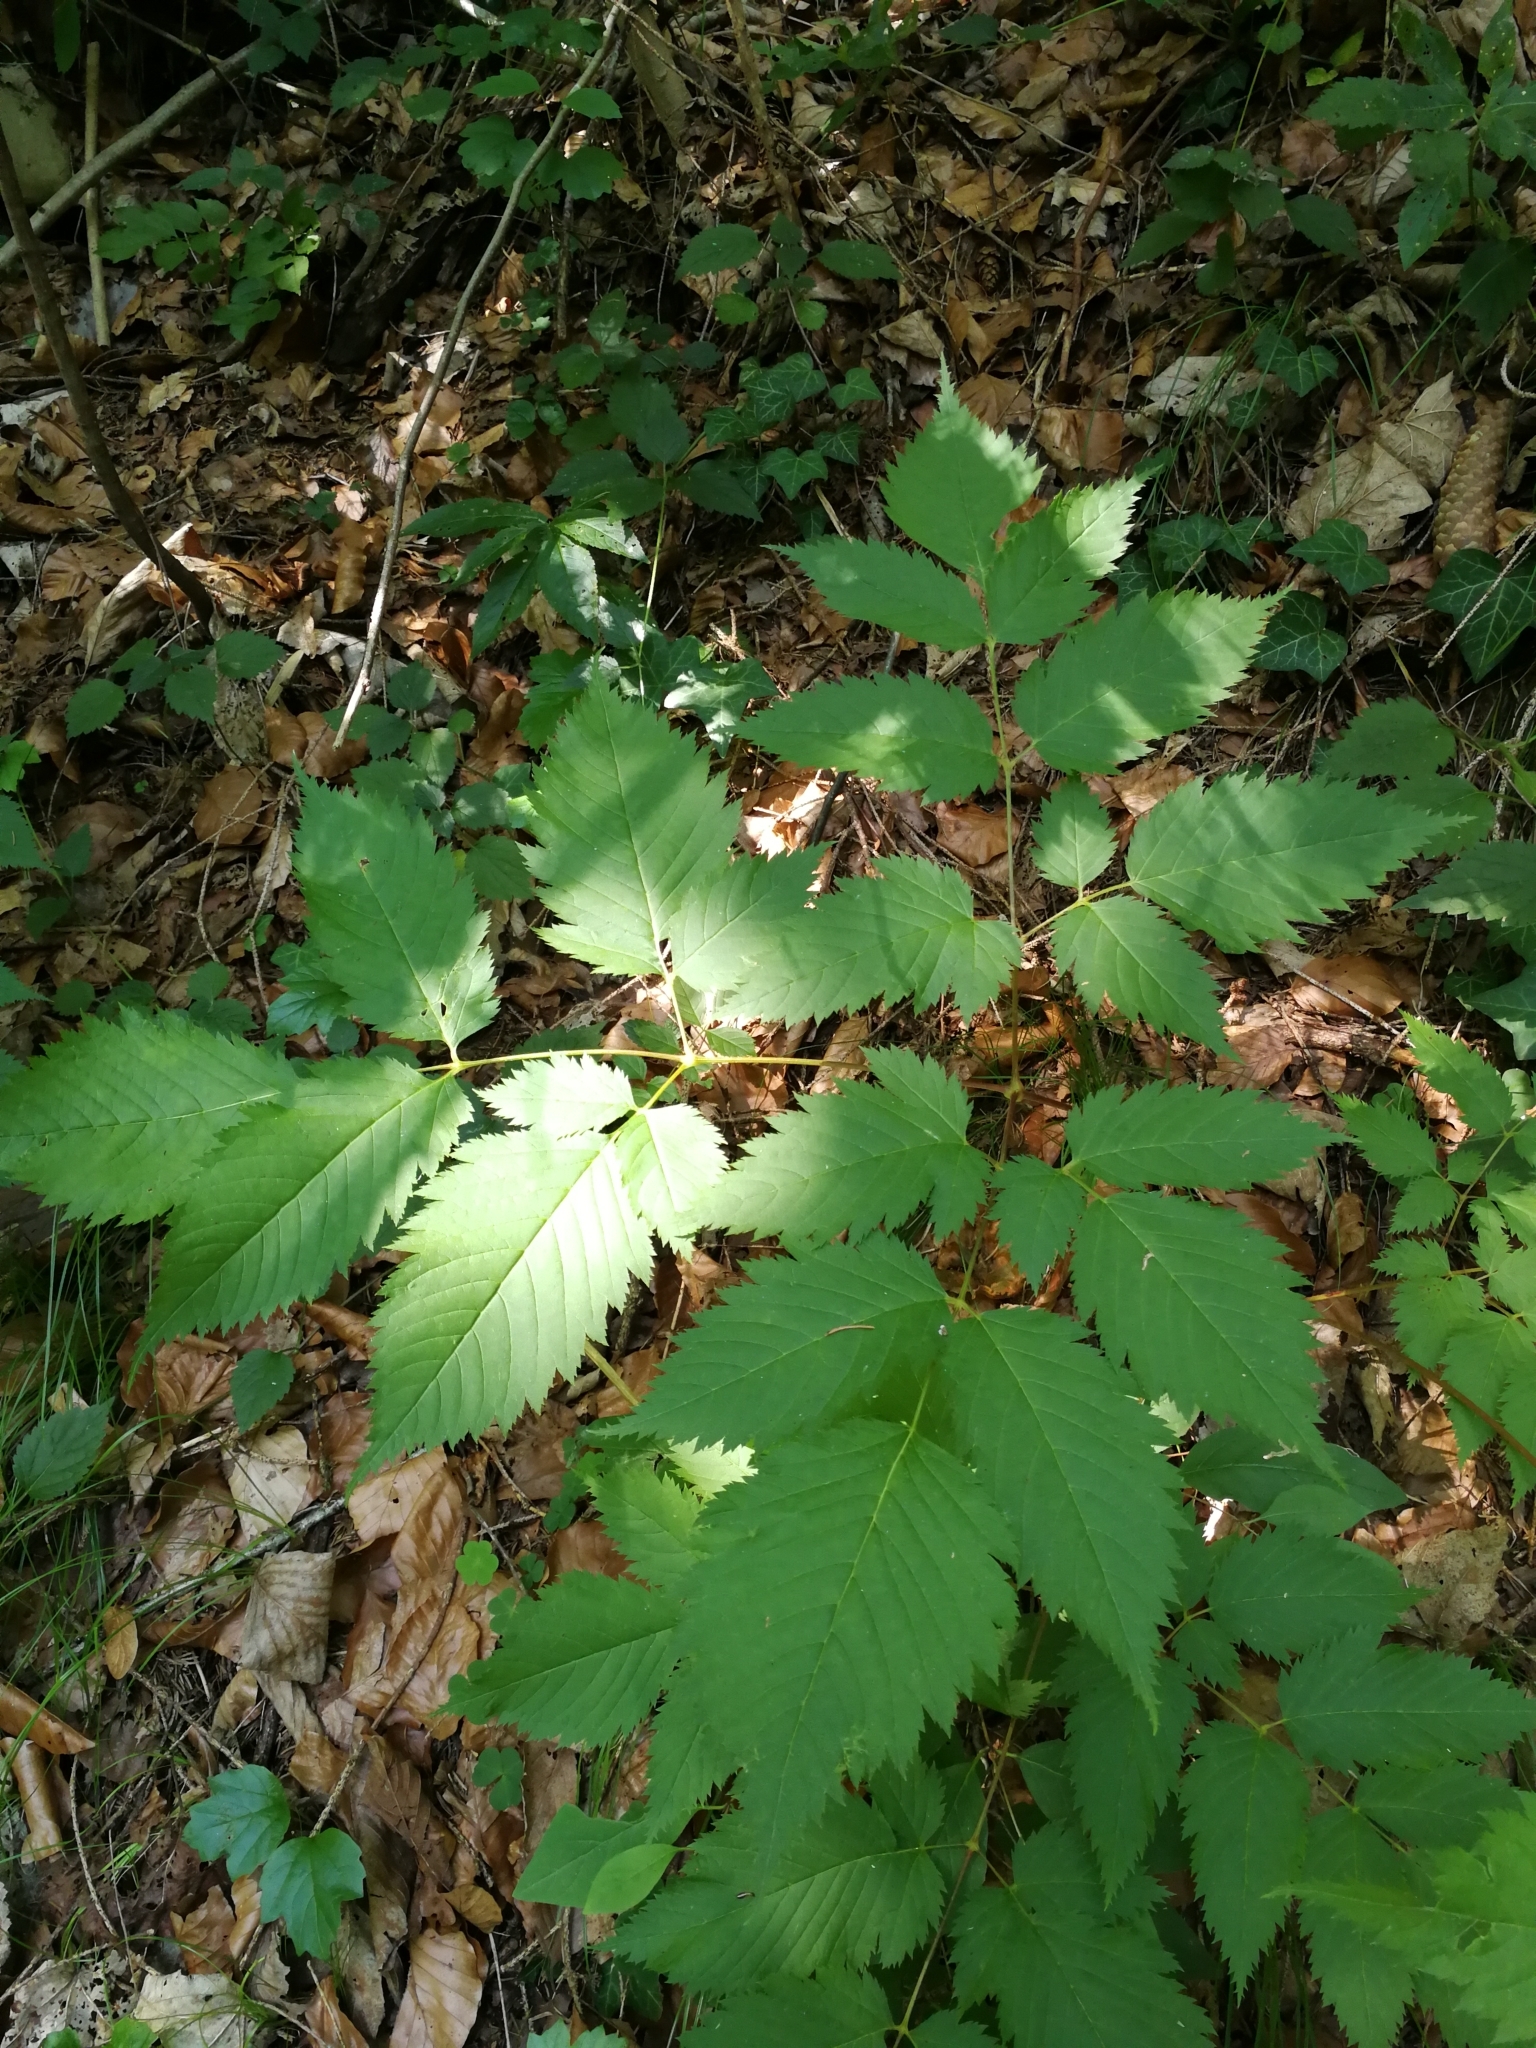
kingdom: Plantae
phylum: Tracheophyta
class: Magnoliopsida
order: Rosales
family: Rosaceae
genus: Aruncus
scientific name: Aruncus dioicus
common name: Buck's-beard
